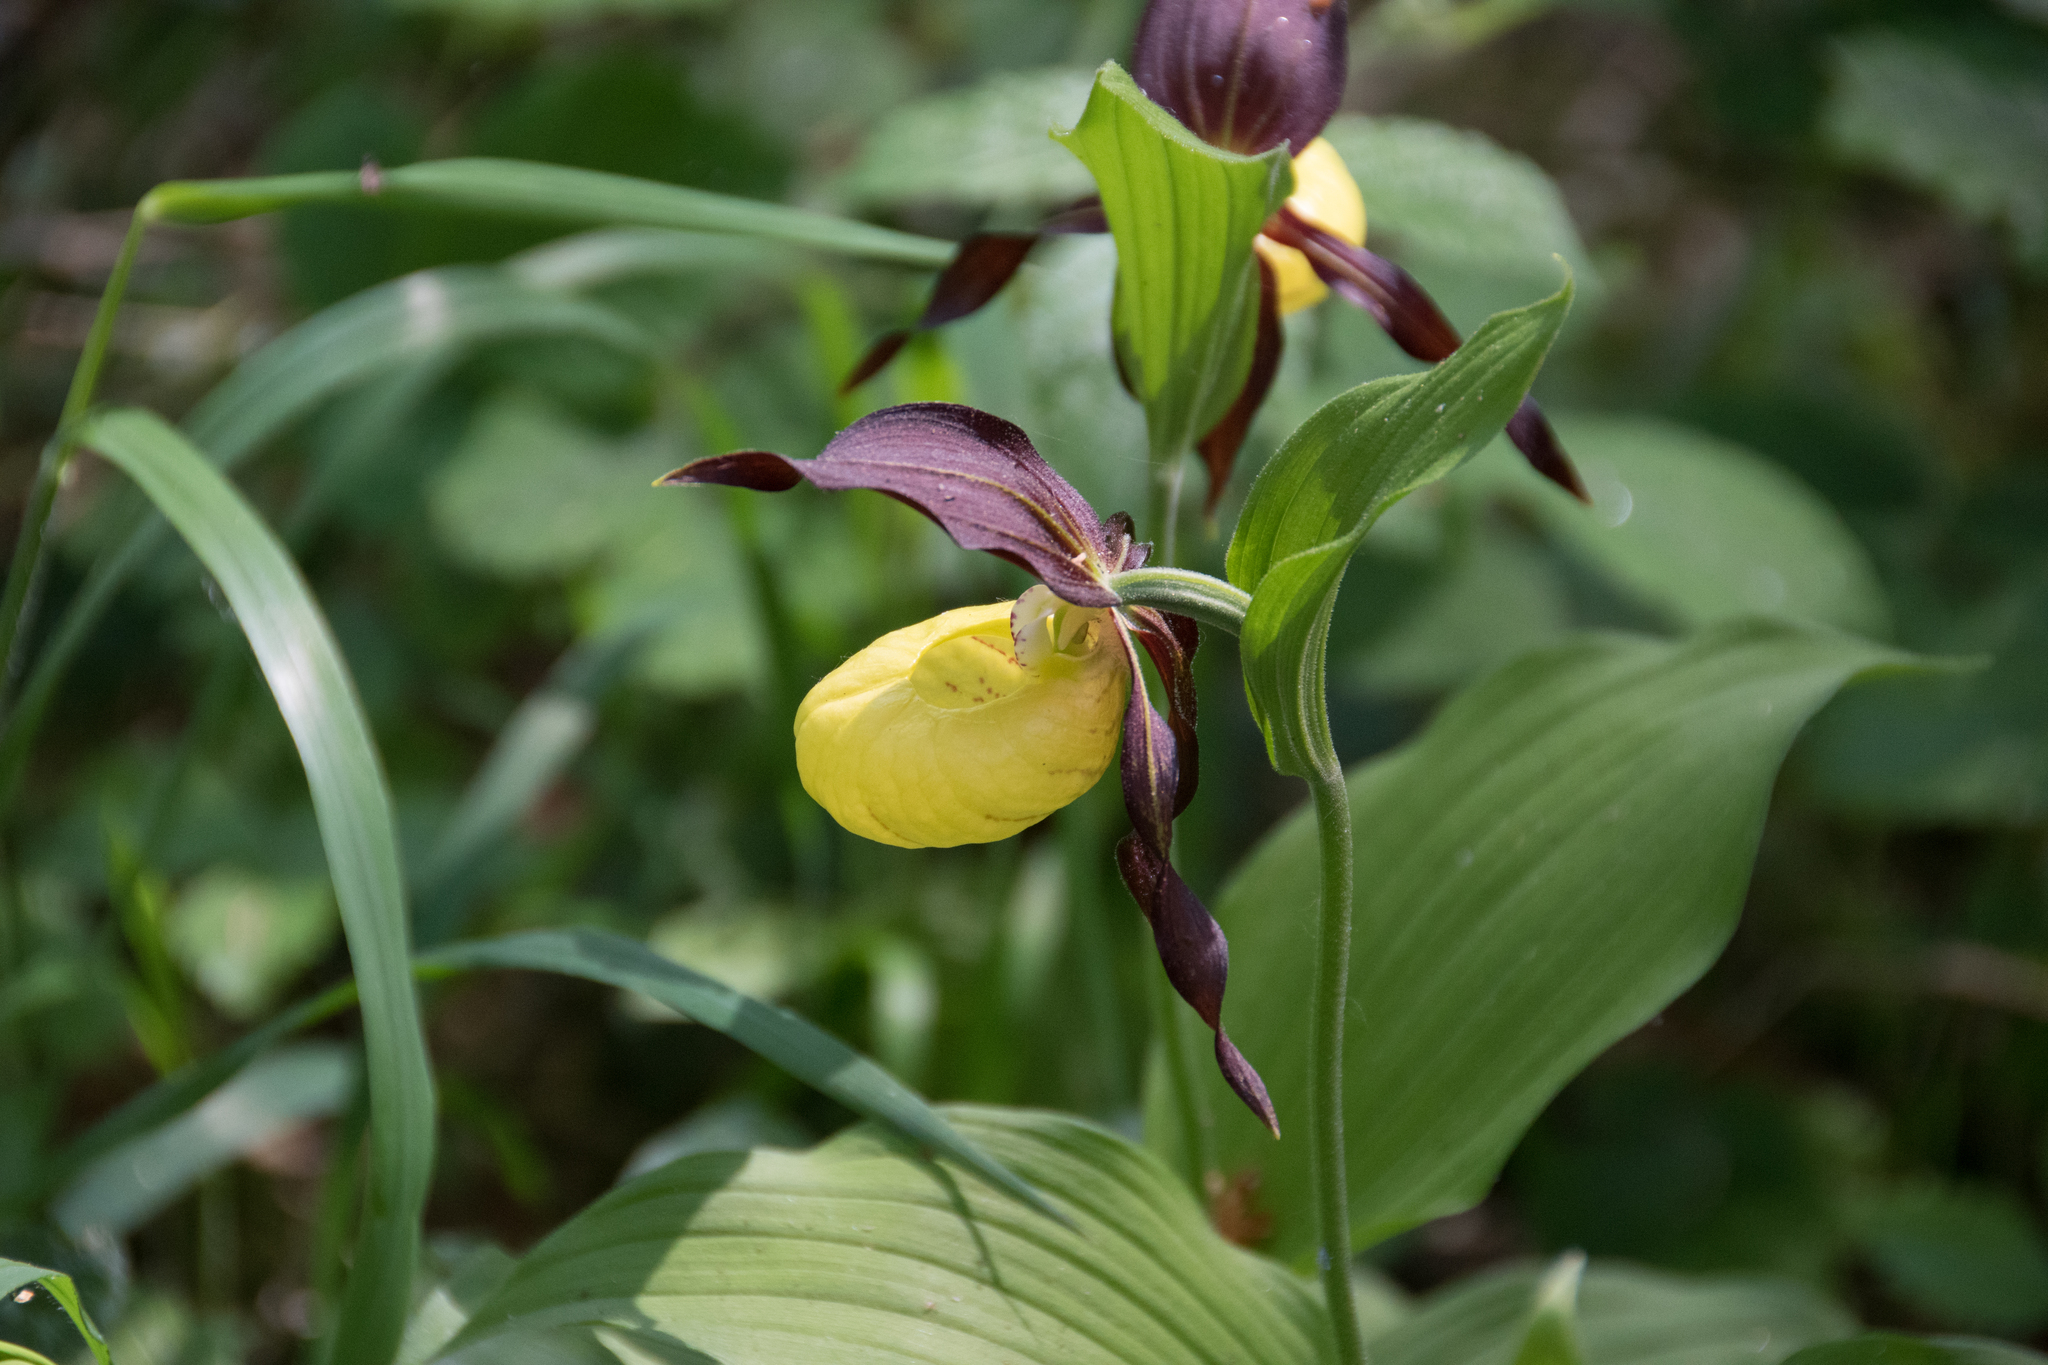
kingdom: Plantae
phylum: Tracheophyta
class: Liliopsida
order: Asparagales
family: Orchidaceae
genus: Cypripedium
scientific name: Cypripedium calceolus
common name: Lady's-slipper
